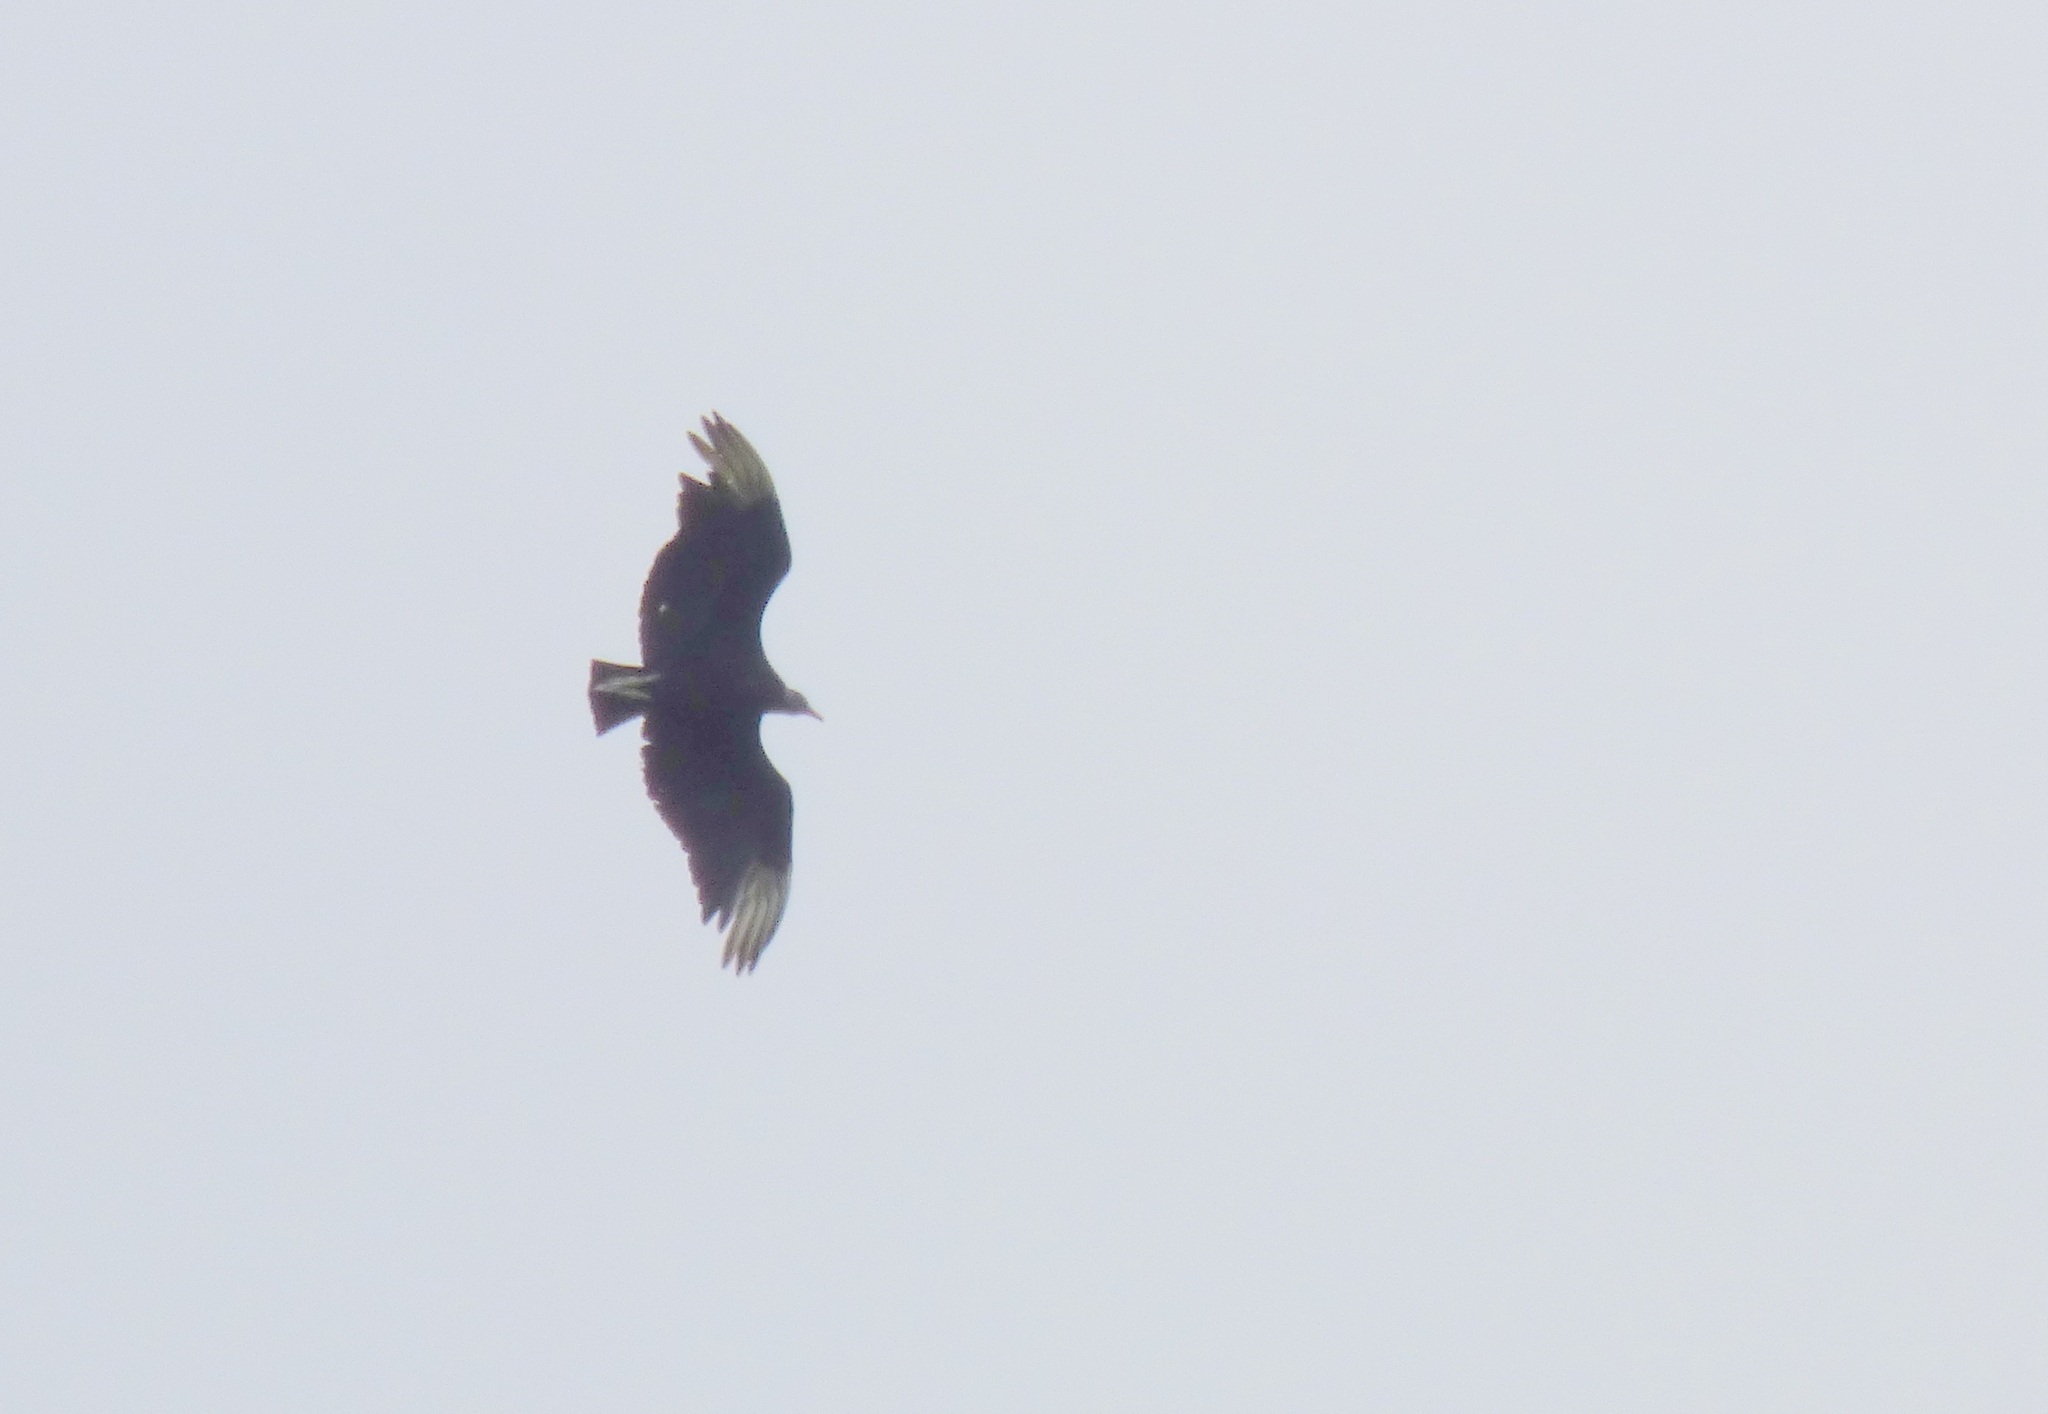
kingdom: Animalia
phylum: Chordata
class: Aves
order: Accipitriformes
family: Cathartidae
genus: Coragyps
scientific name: Coragyps atratus
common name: Black vulture
